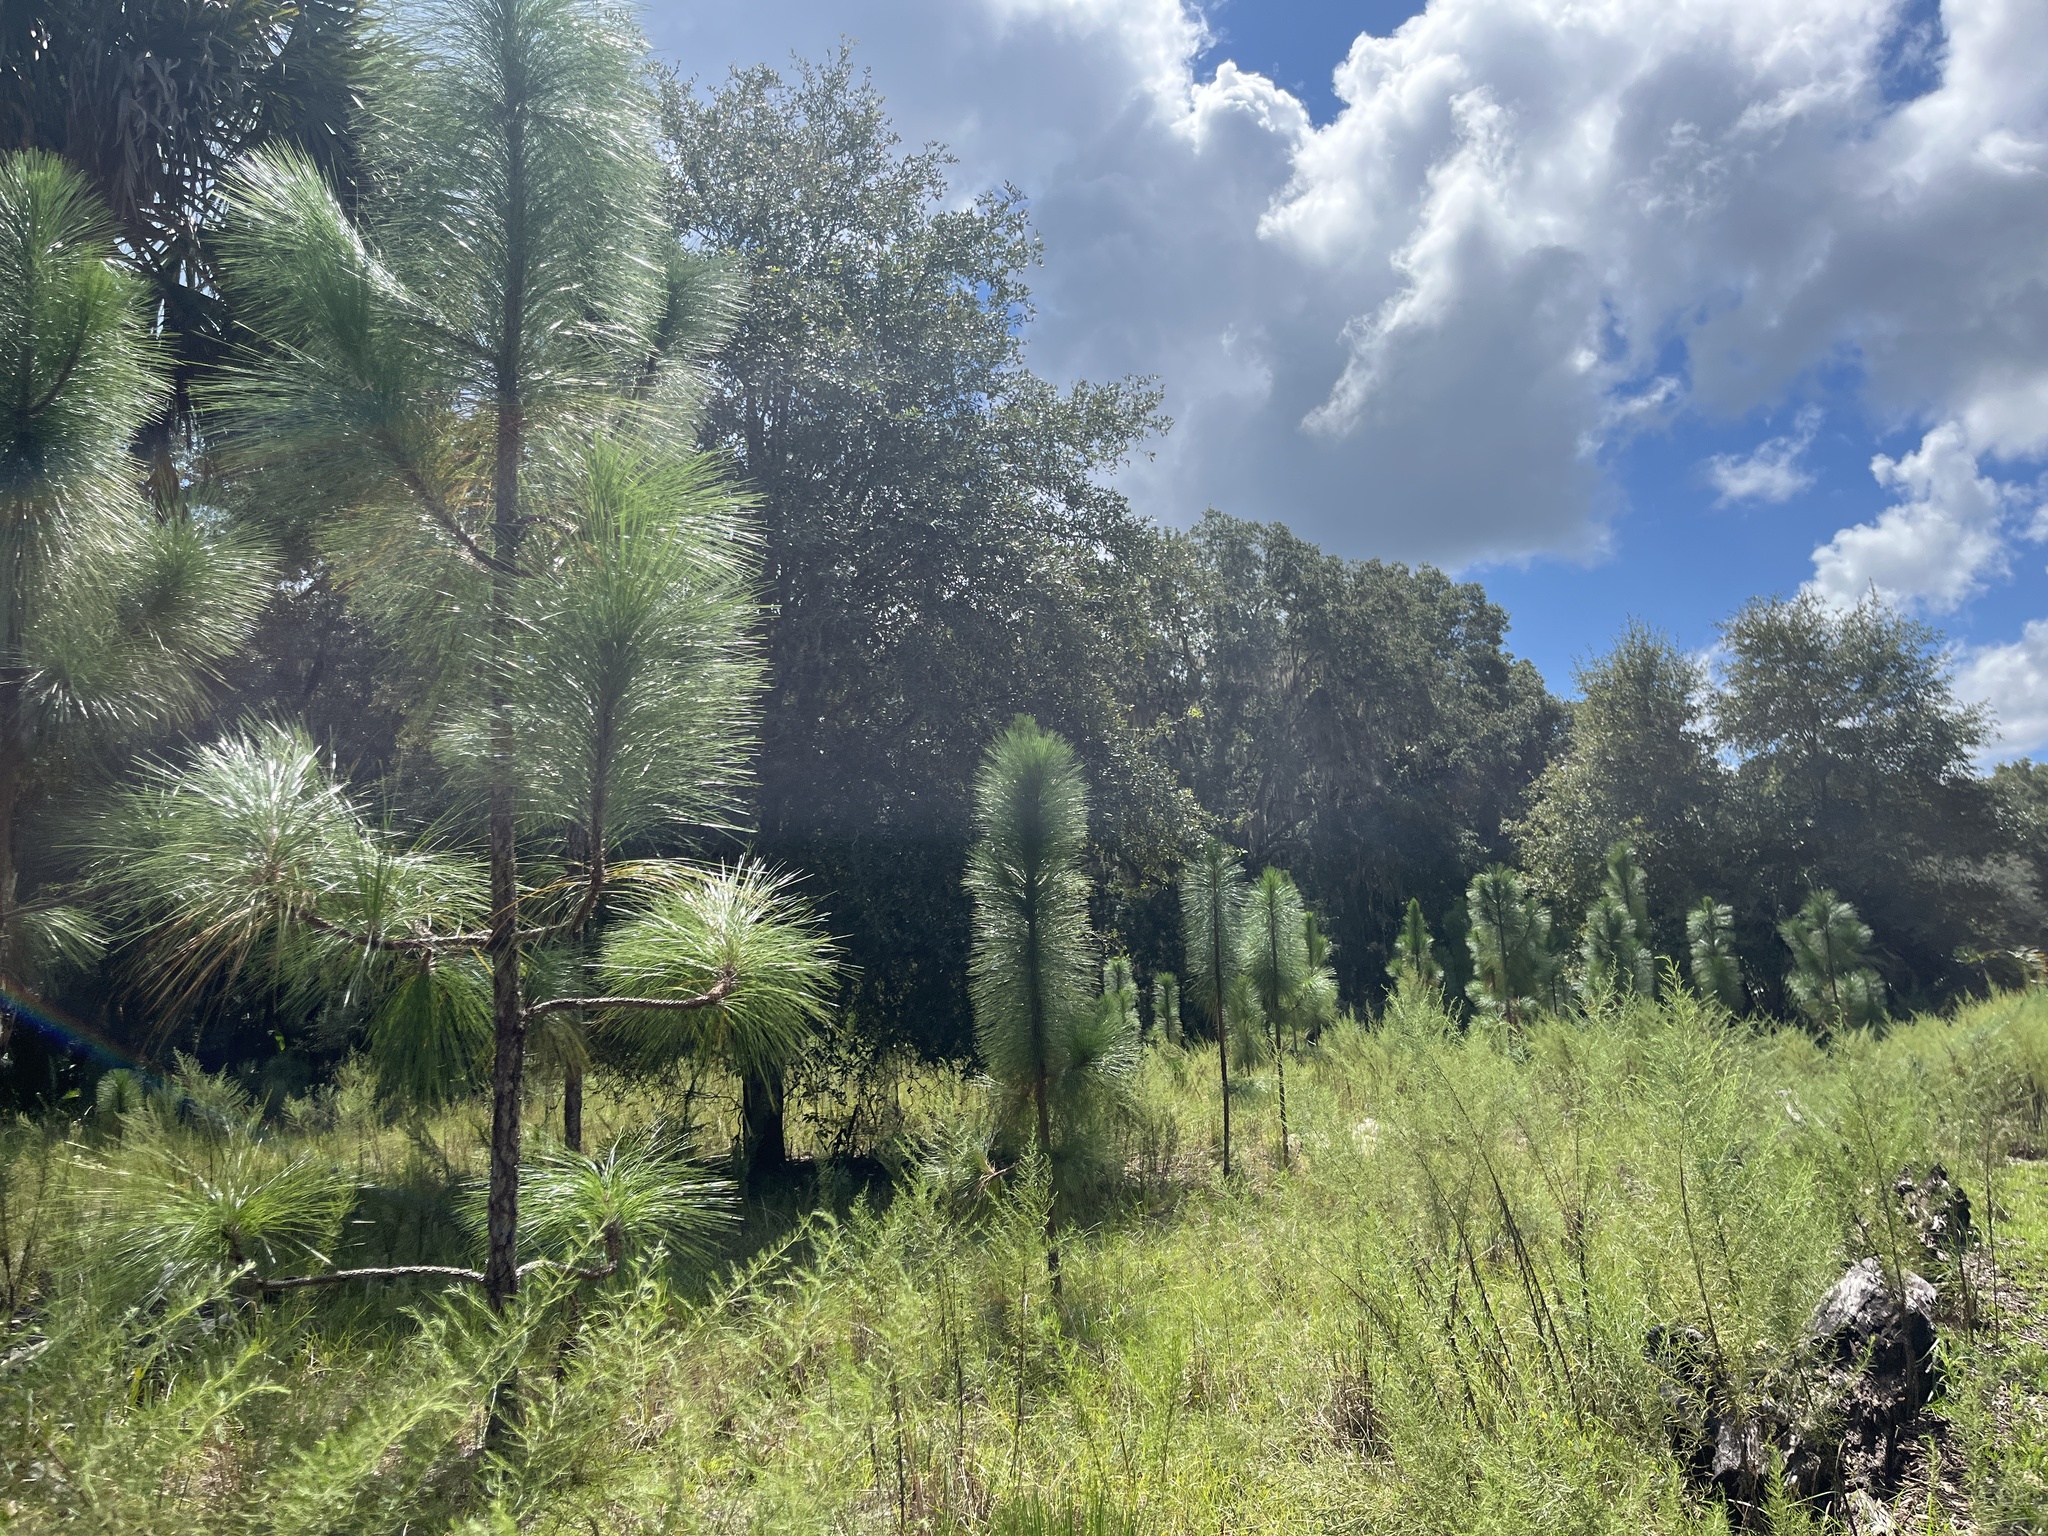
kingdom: Plantae
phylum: Tracheophyta
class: Pinopsida
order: Pinales
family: Pinaceae
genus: Pinus
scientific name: Pinus palustris
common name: Longleaf pine
